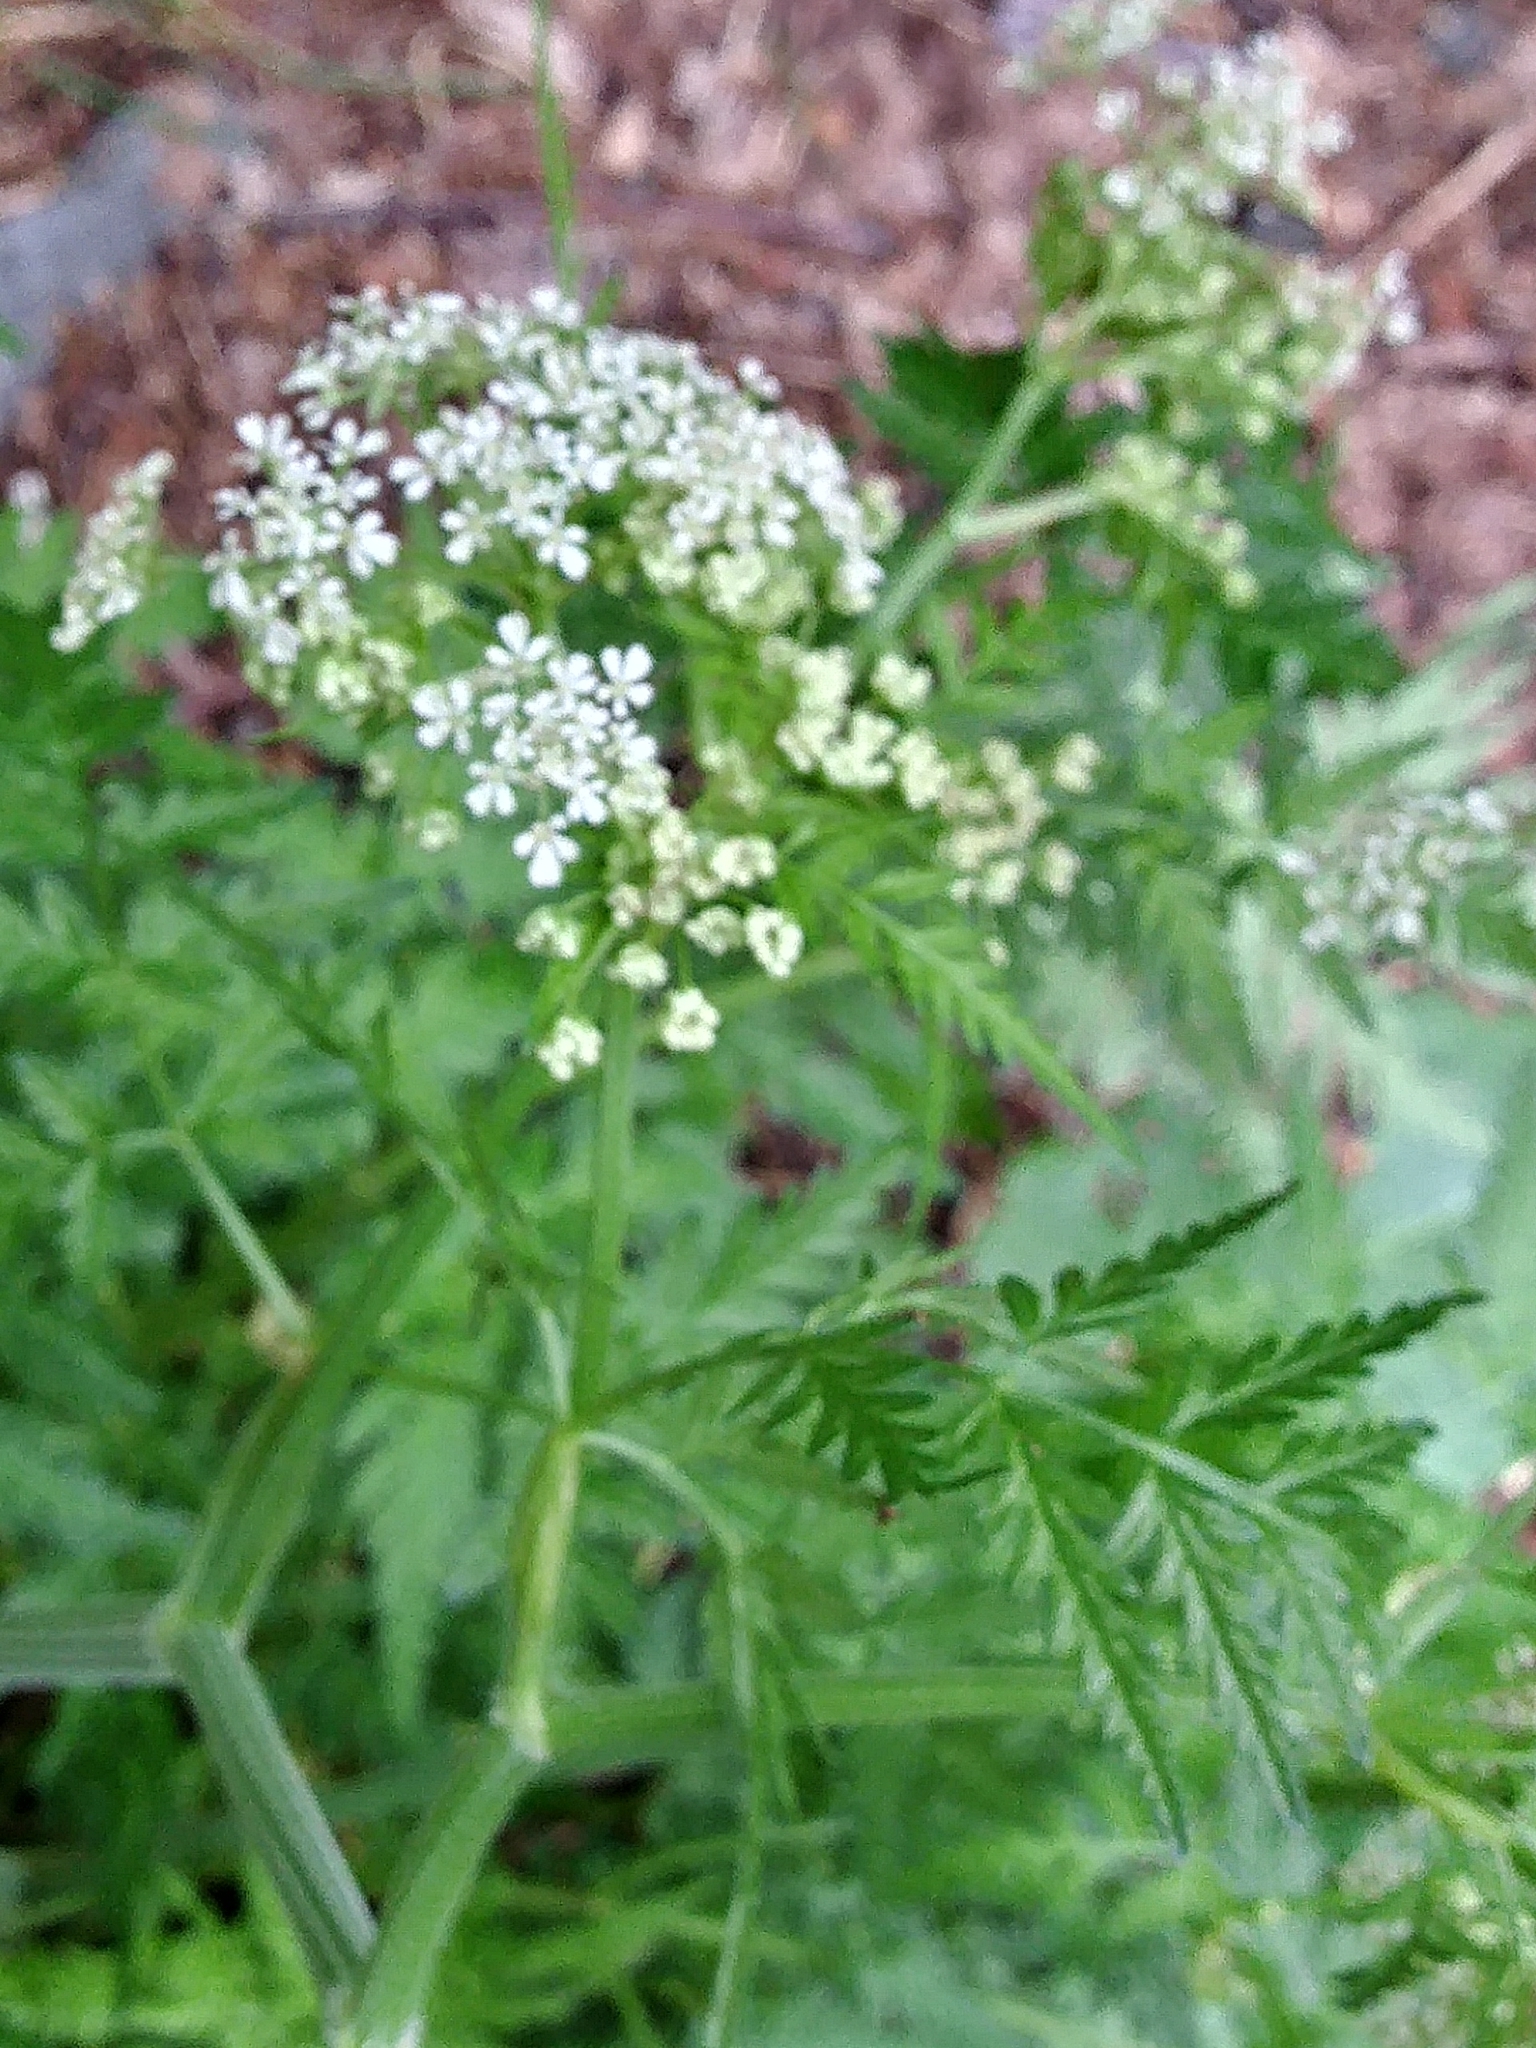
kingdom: Plantae
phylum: Tracheophyta
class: Magnoliopsida
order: Apiales
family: Apiaceae
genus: Anthriscus
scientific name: Anthriscus sylvestris
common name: Cow parsley
